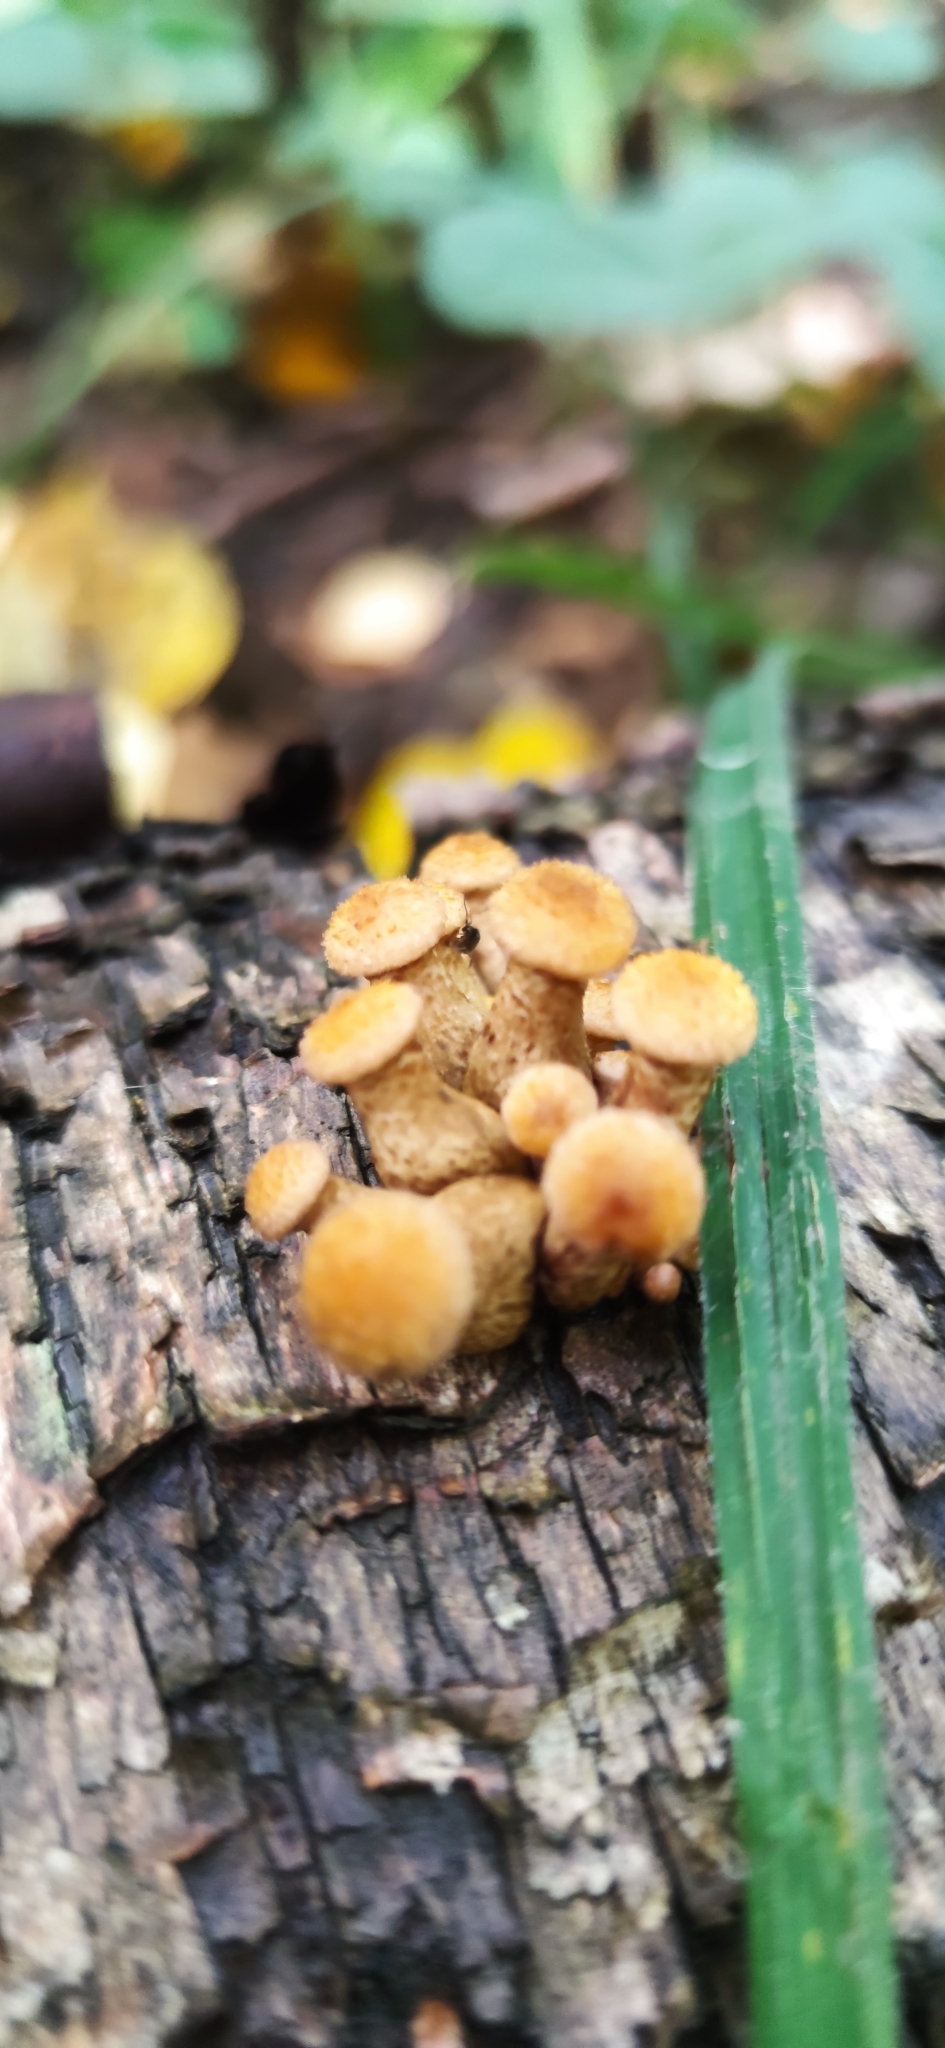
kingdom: Fungi
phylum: Basidiomycota
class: Agaricomycetes
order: Agaricales
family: Physalacriaceae
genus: Armillaria
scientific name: Armillaria borealis
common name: Northern honey fungus
